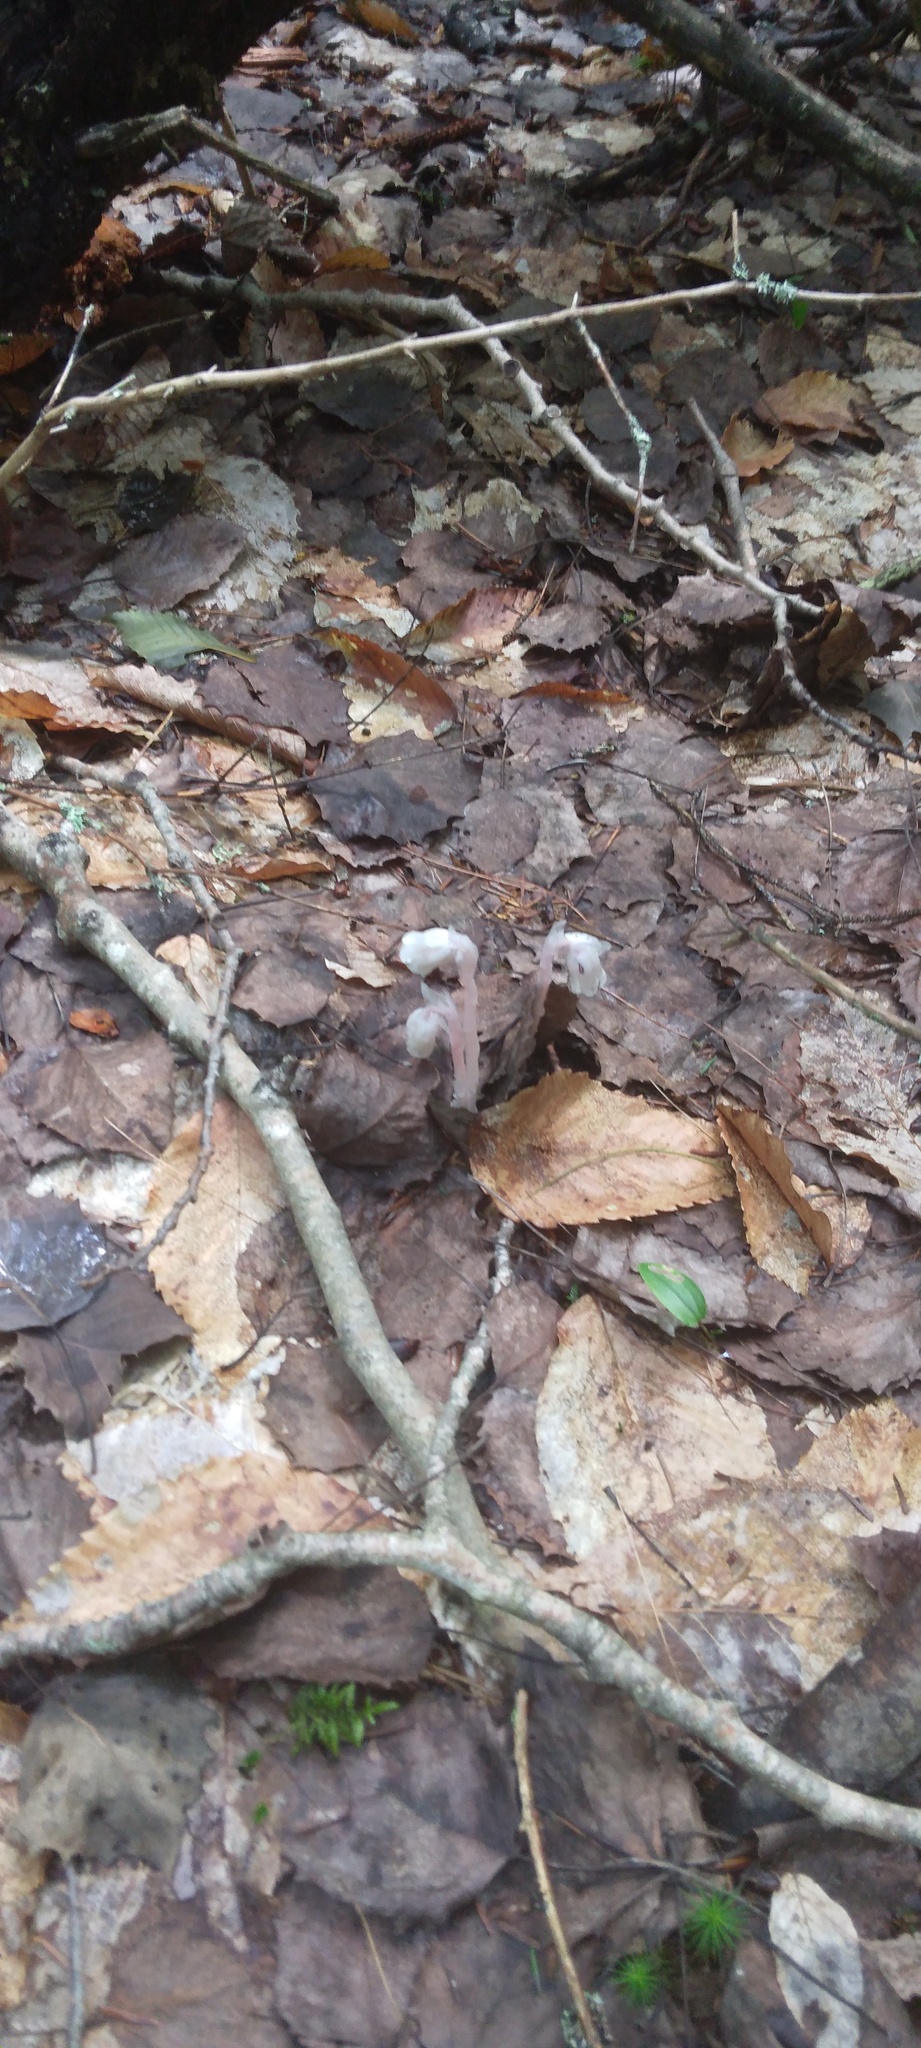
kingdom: Plantae
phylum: Tracheophyta
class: Magnoliopsida
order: Ericales
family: Ericaceae
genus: Monotropa
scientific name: Monotropa uniflora
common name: Convulsion root
